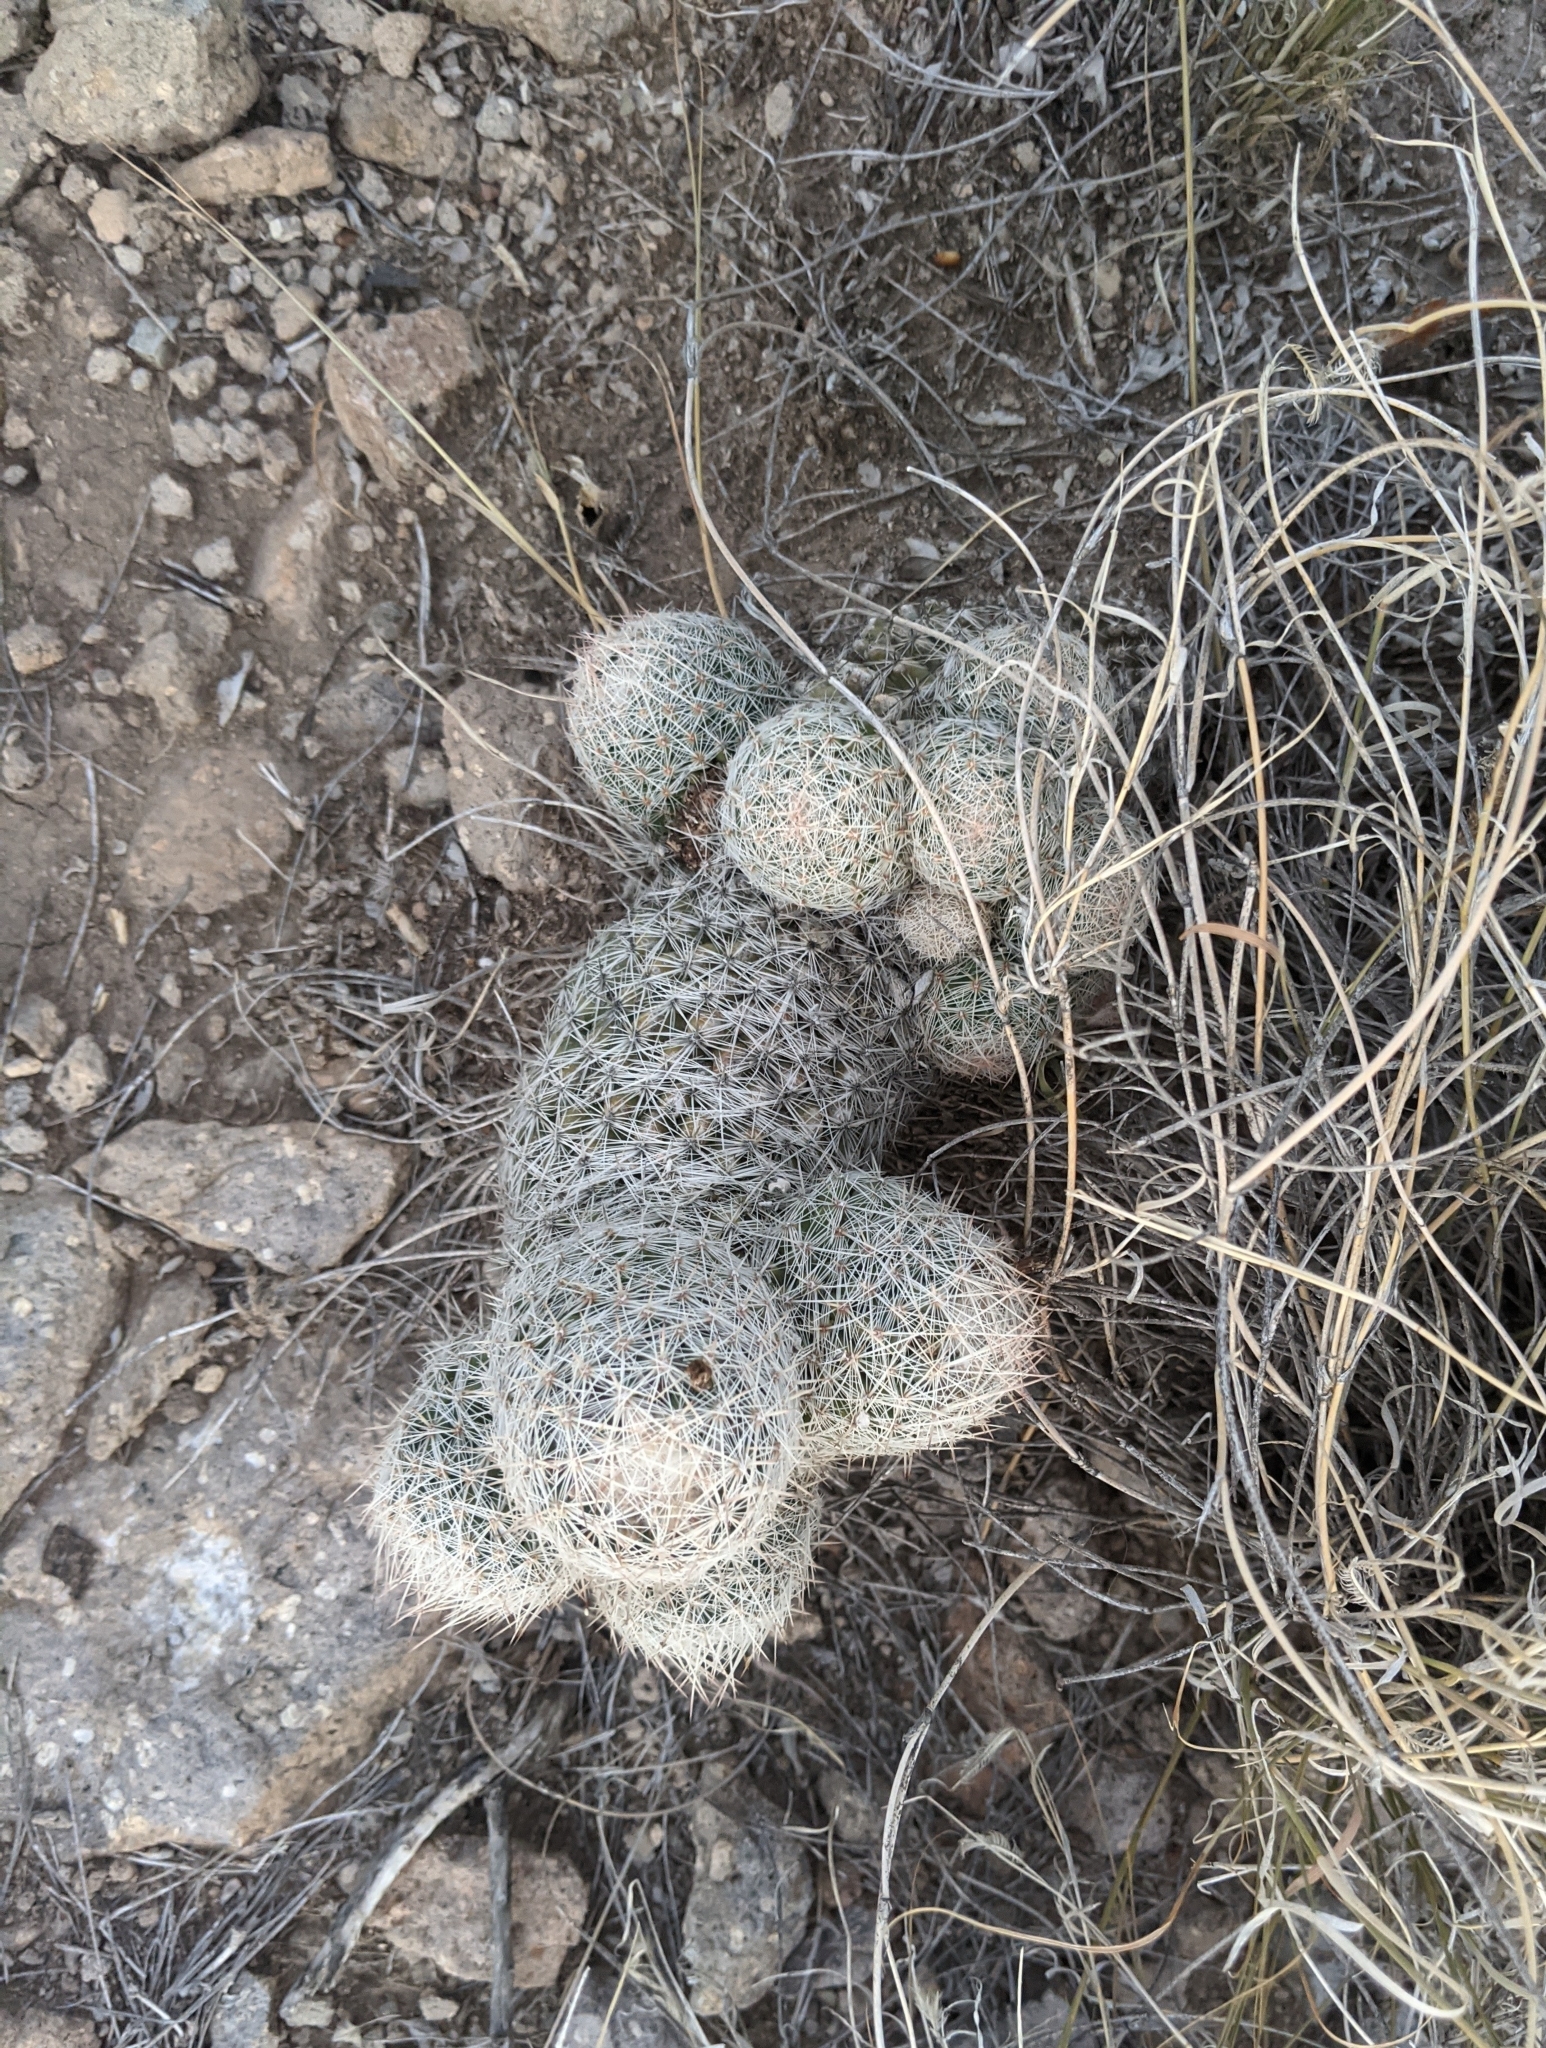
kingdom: Plantae
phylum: Tracheophyta
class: Magnoliopsida
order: Caryophyllales
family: Cactaceae
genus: Pelecyphora
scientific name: Pelecyphora tuberculosa
